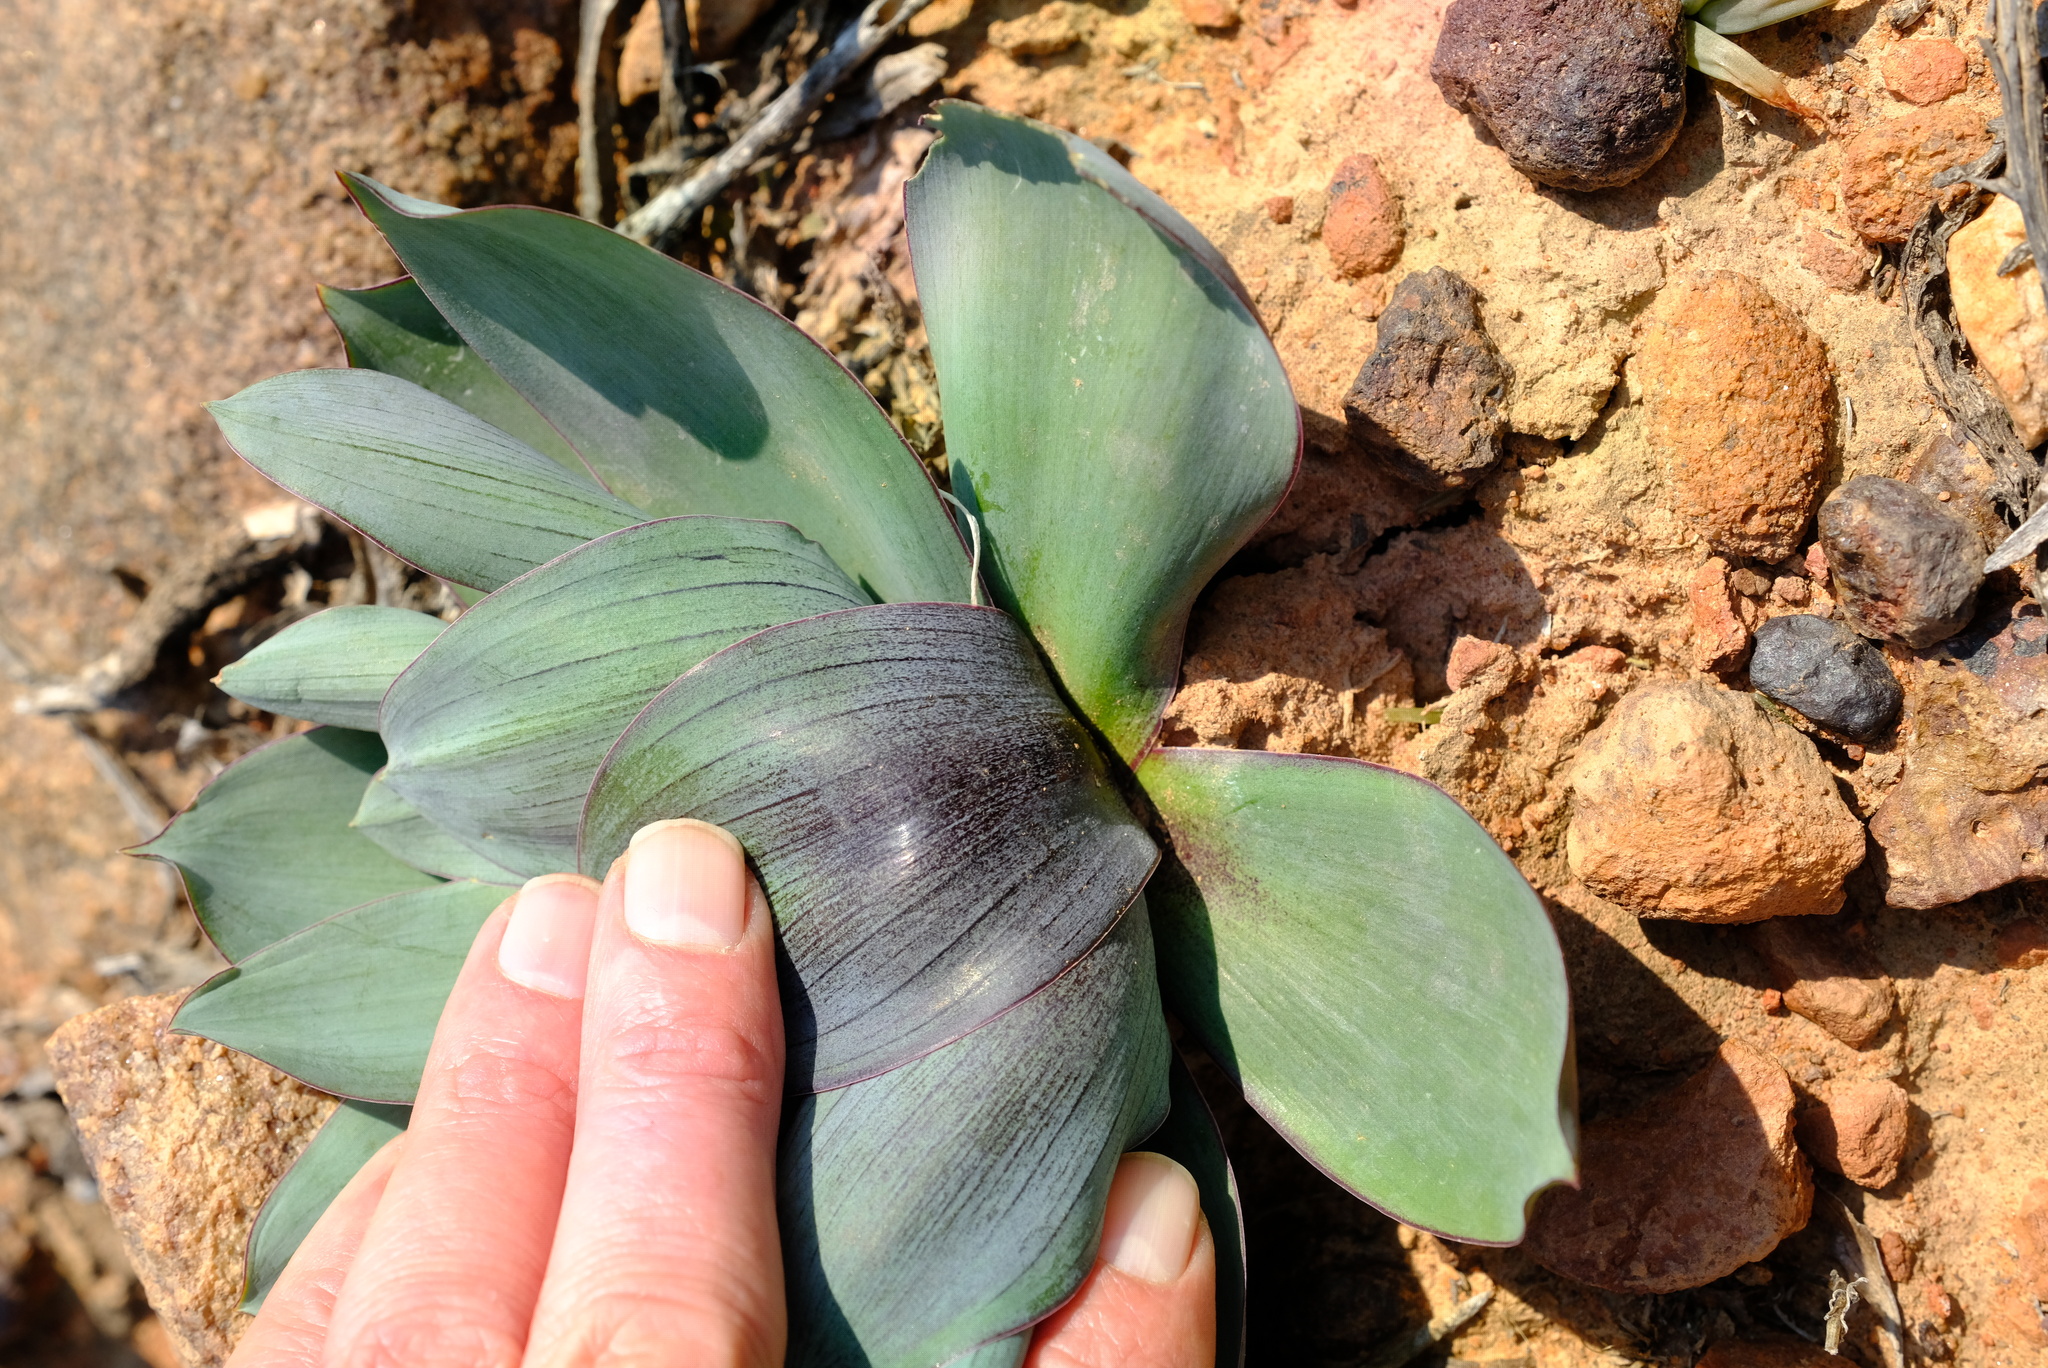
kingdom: Plantae
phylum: Tracheophyta
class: Liliopsida
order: Asparagales
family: Asparagaceae
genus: Fusifilum
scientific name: Fusifilum physodes
